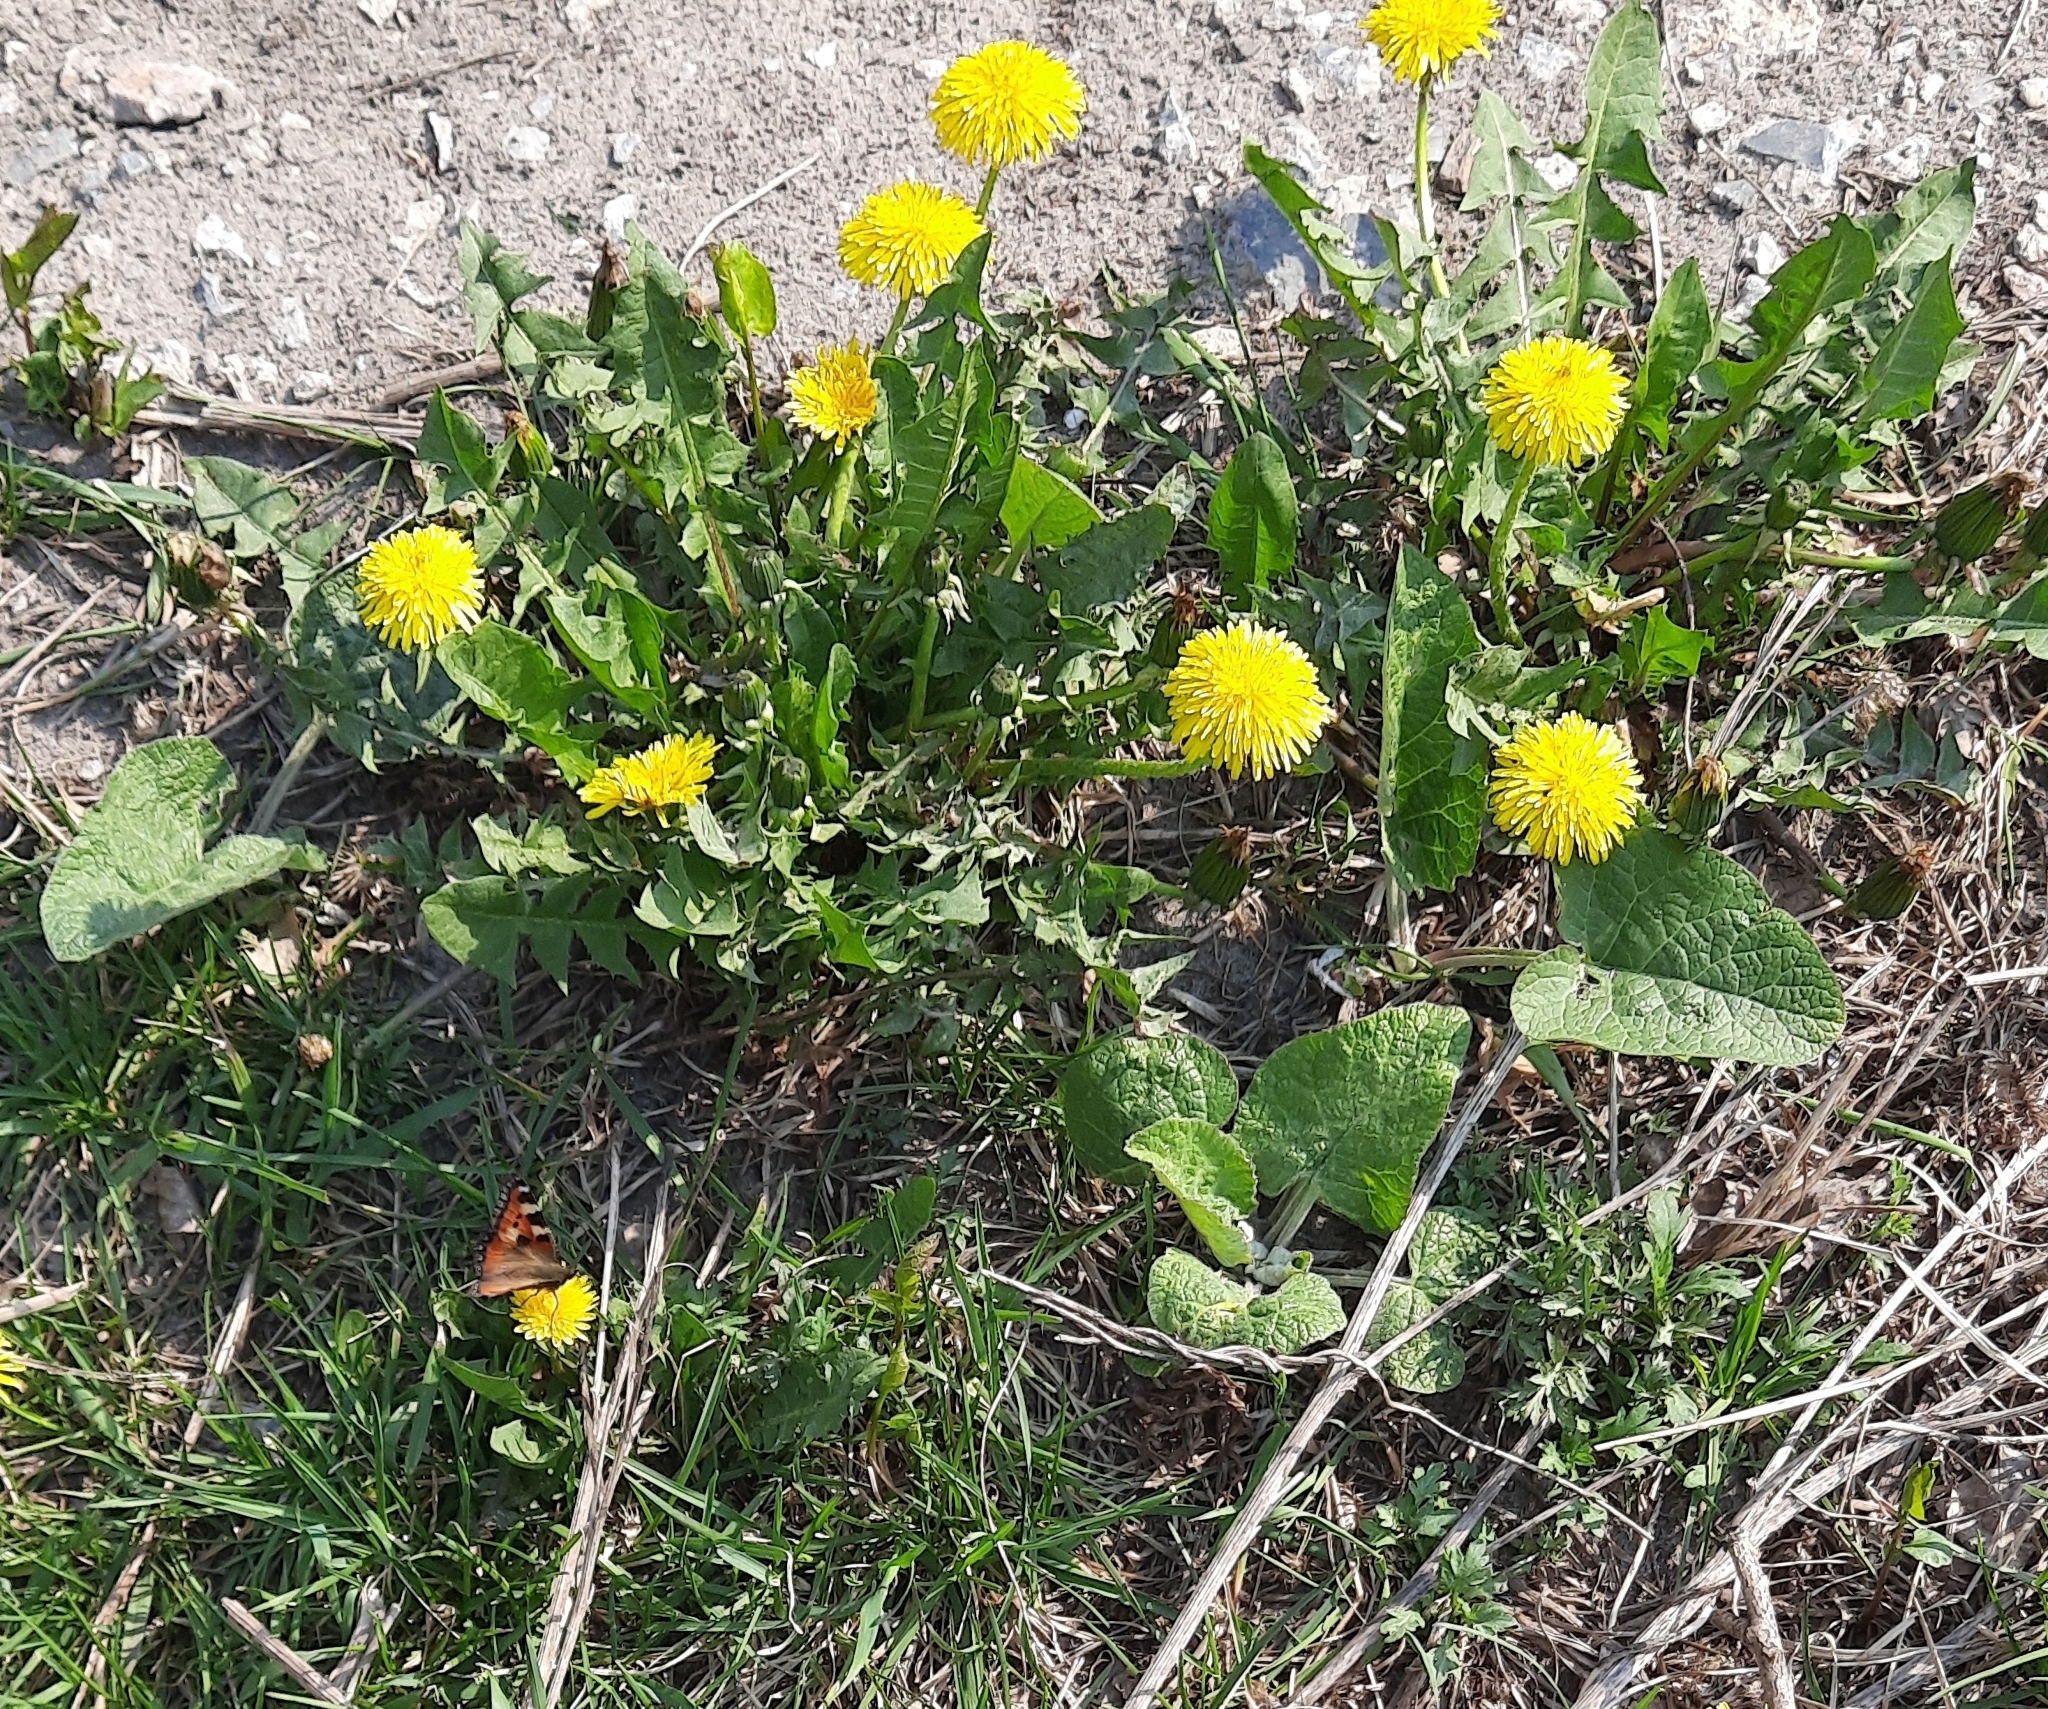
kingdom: Plantae
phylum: Tracheophyta
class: Magnoliopsida
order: Asterales
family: Asteraceae
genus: Taraxacum
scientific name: Taraxacum officinale
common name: Common dandelion
